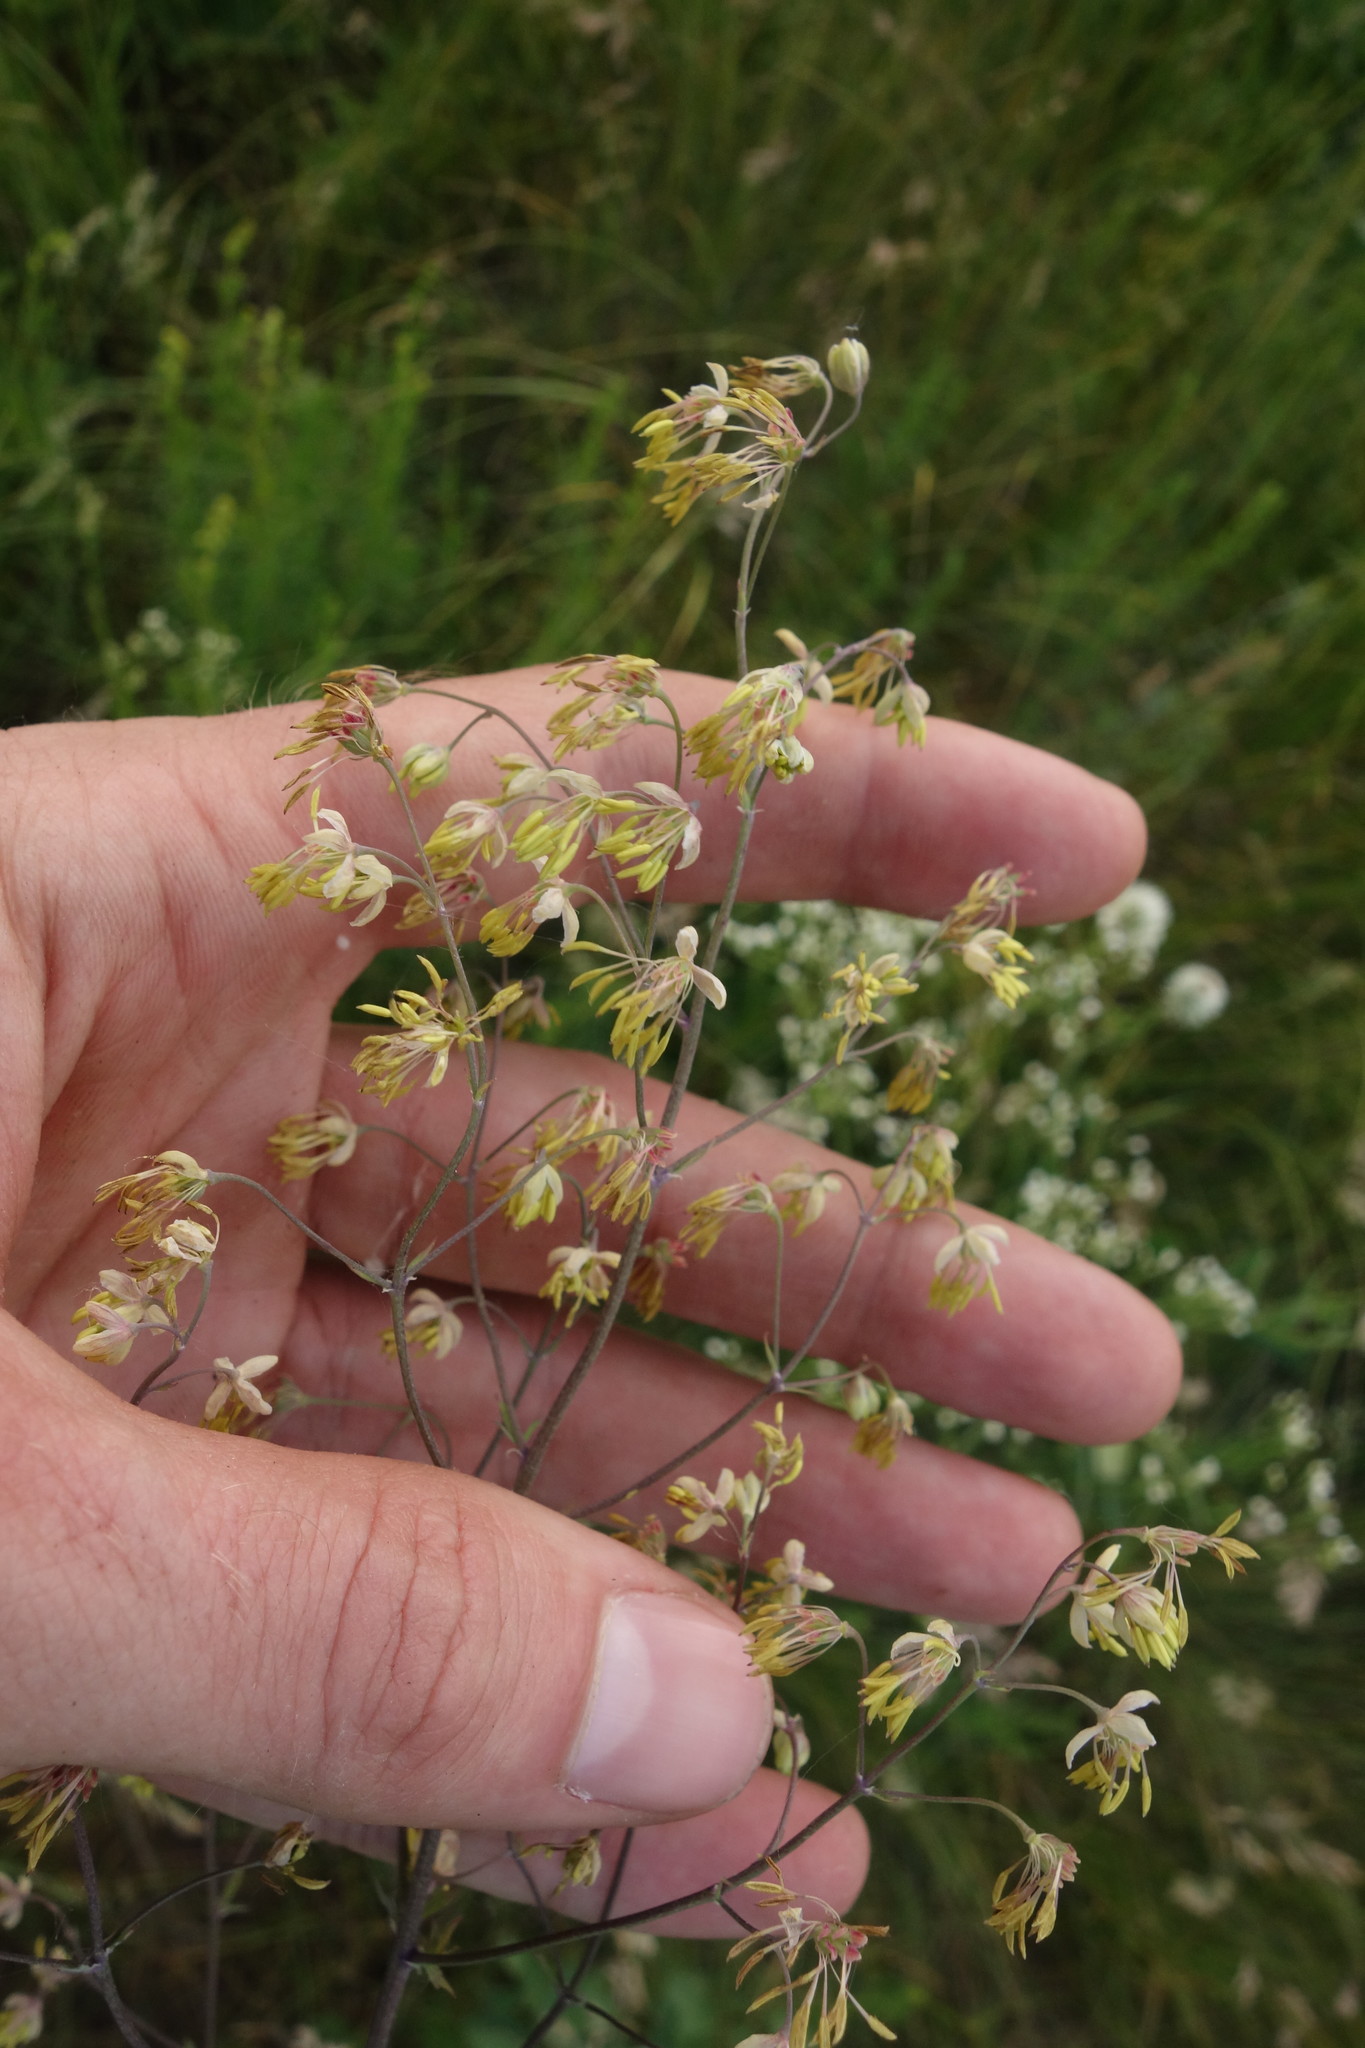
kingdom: Plantae
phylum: Tracheophyta
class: Magnoliopsida
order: Ranunculales
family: Ranunculaceae
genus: Thalictrum
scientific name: Thalictrum minus
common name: Lesser meadow-rue
